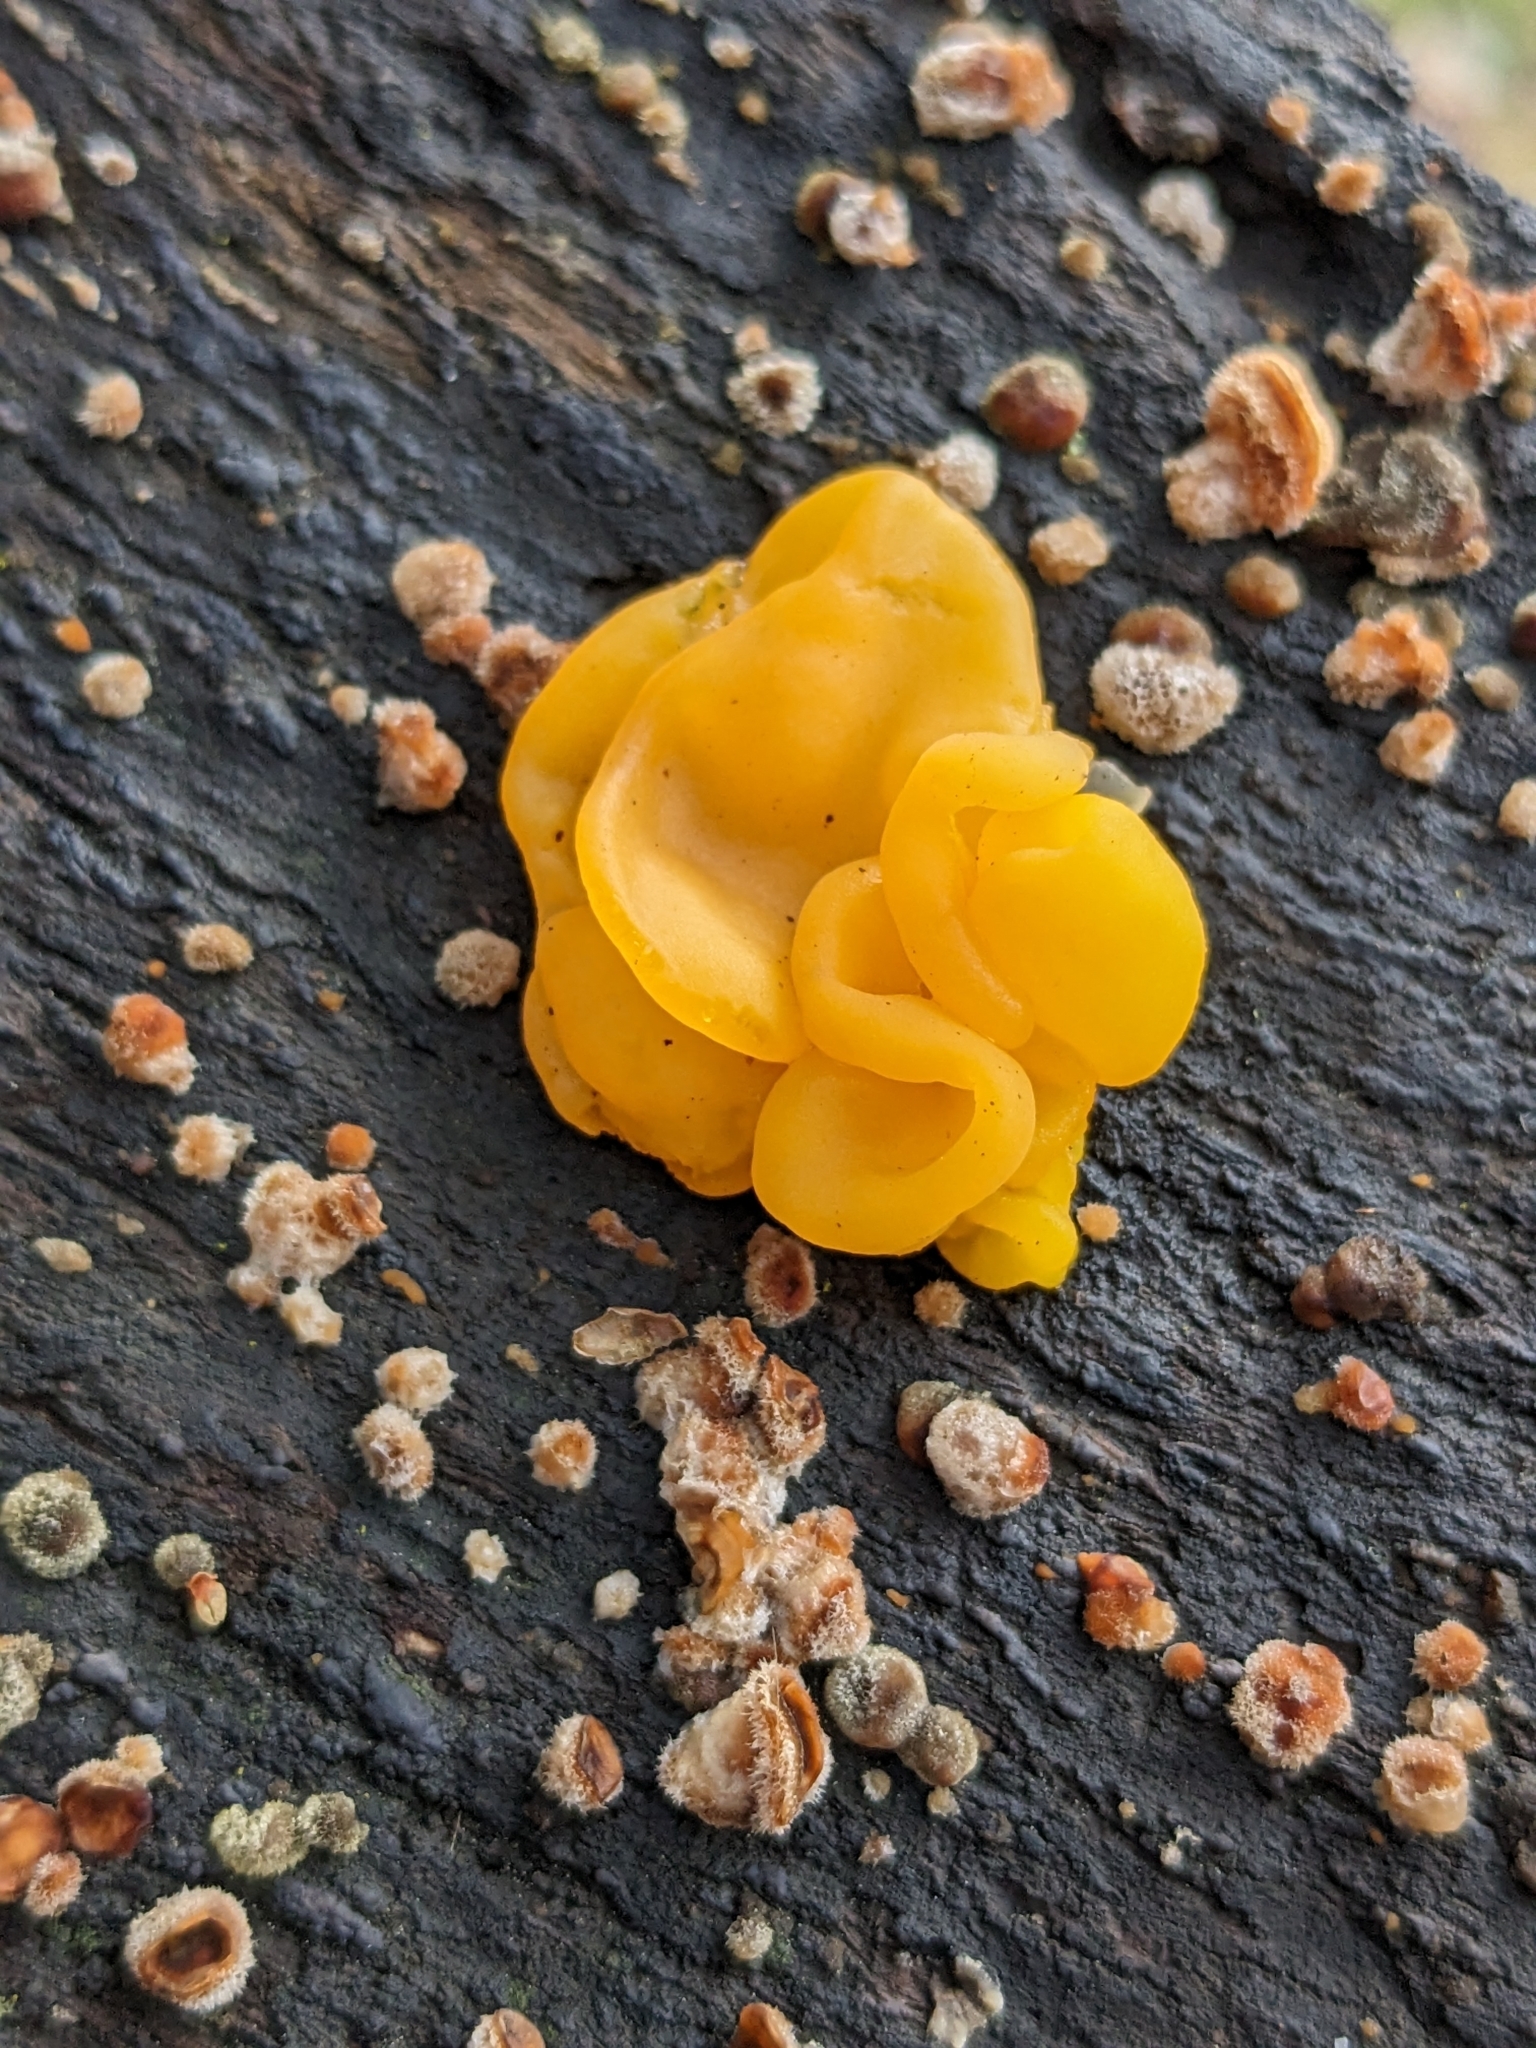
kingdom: Fungi
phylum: Basidiomycota
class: Tremellomycetes
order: Tremellales
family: Naemateliaceae
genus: Naematelia
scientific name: Naematelia aurantia
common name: Golden ear
